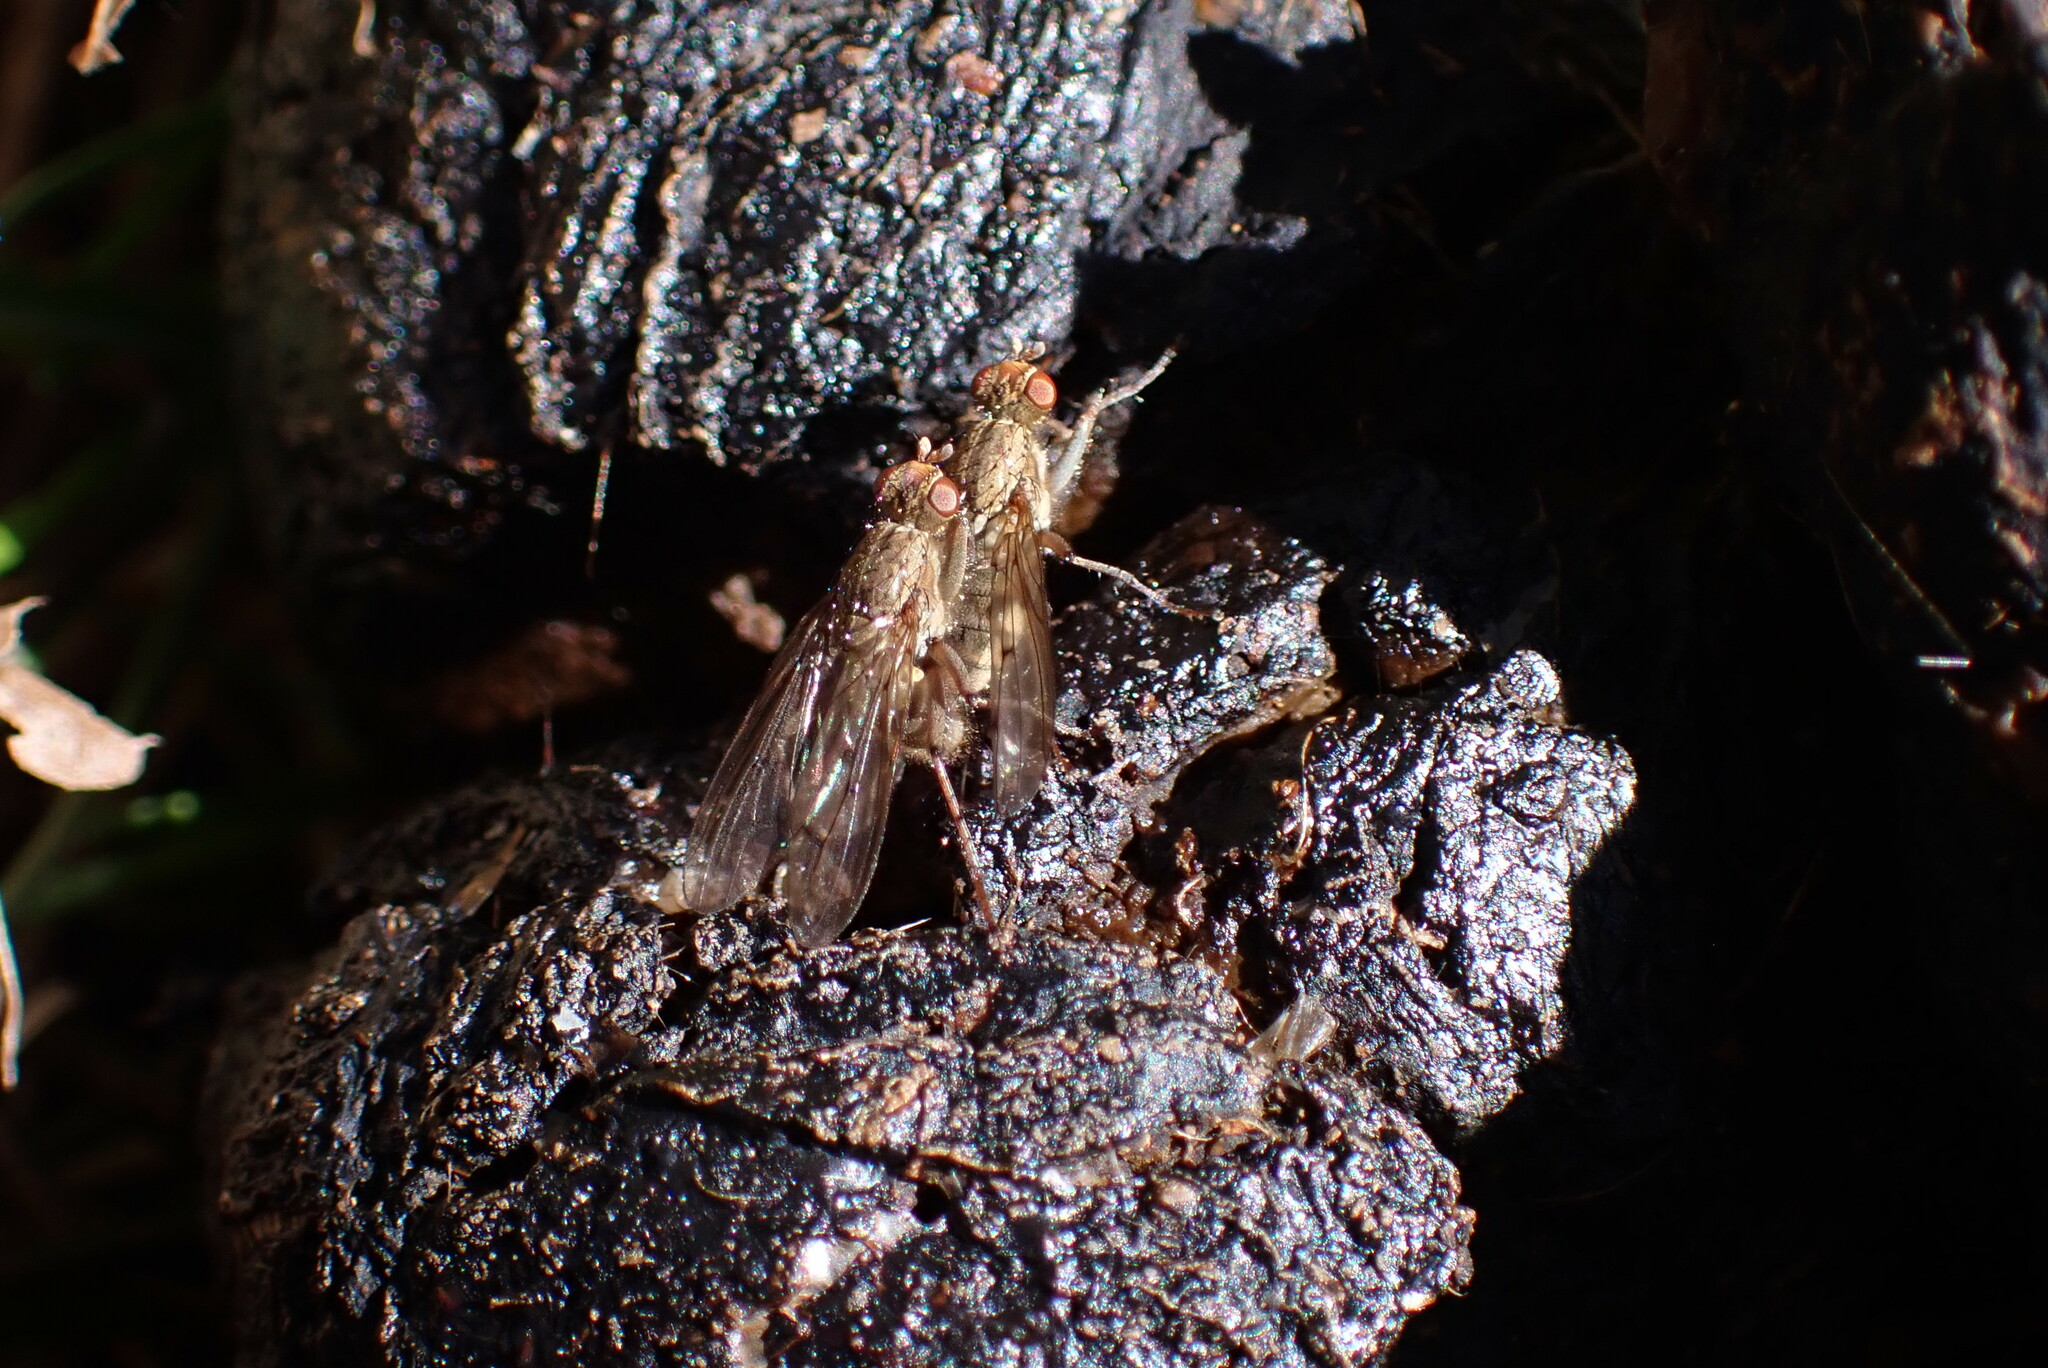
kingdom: Animalia
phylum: Arthropoda
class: Insecta
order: Diptera
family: Scathophagidae
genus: Scathophaga
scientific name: Scathophaga furcata
